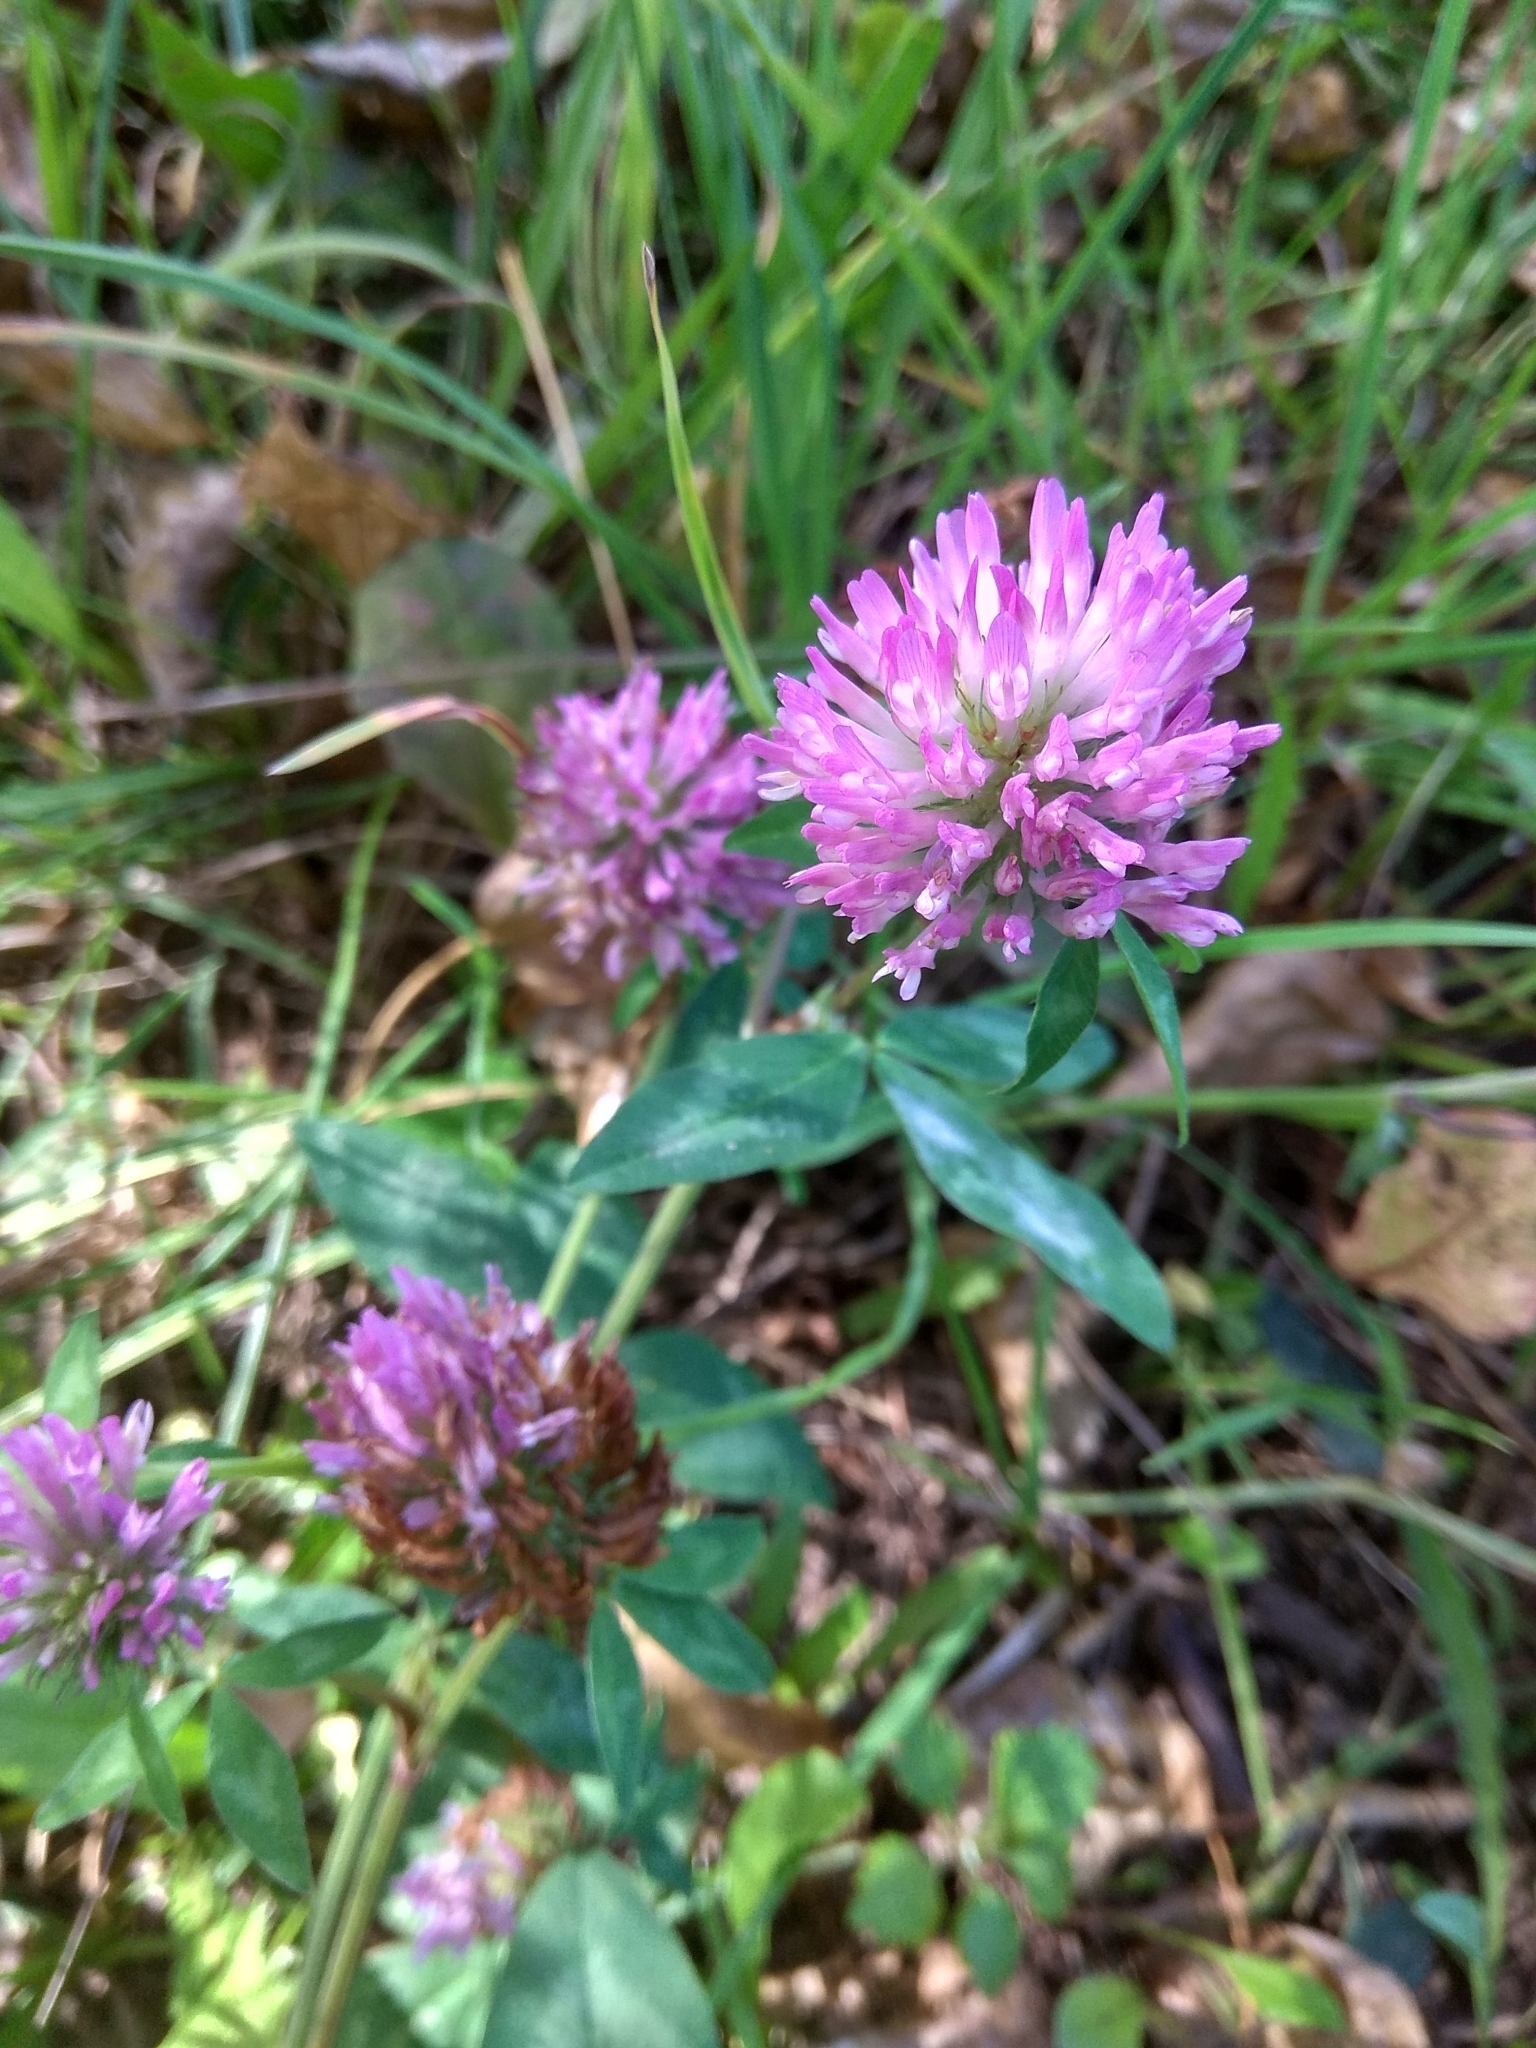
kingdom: Plantae
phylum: Tracheophyta
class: Magnoliopsida
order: Fabales
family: Fabaceae
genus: Trifolium
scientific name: Trifolium pratense
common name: Red clover
